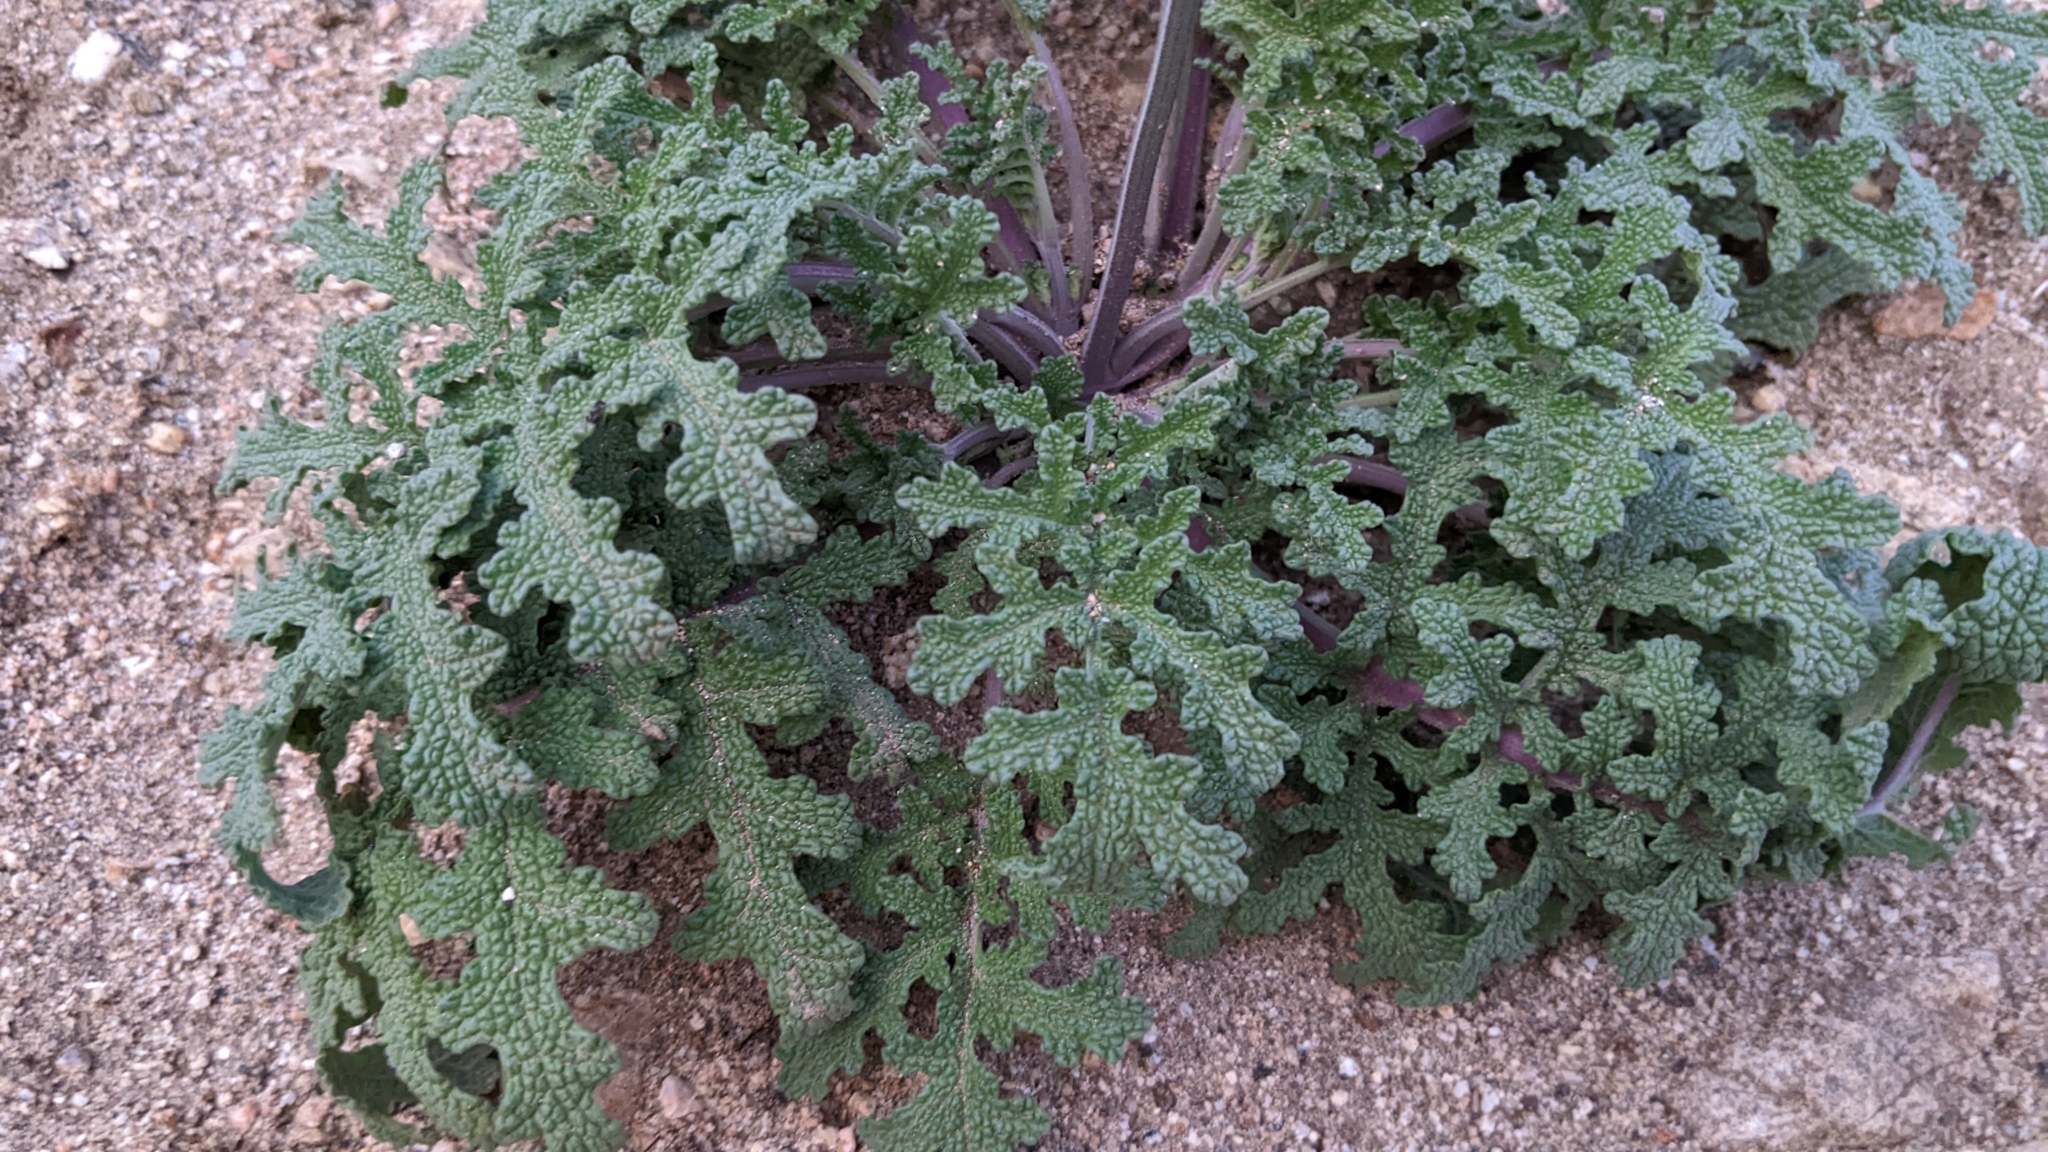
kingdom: Plantae
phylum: Tracheophyta
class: Magnoliopsida
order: Lamiales
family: Lamiaceae
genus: Salvia
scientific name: Salvia columbariae
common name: Chia
